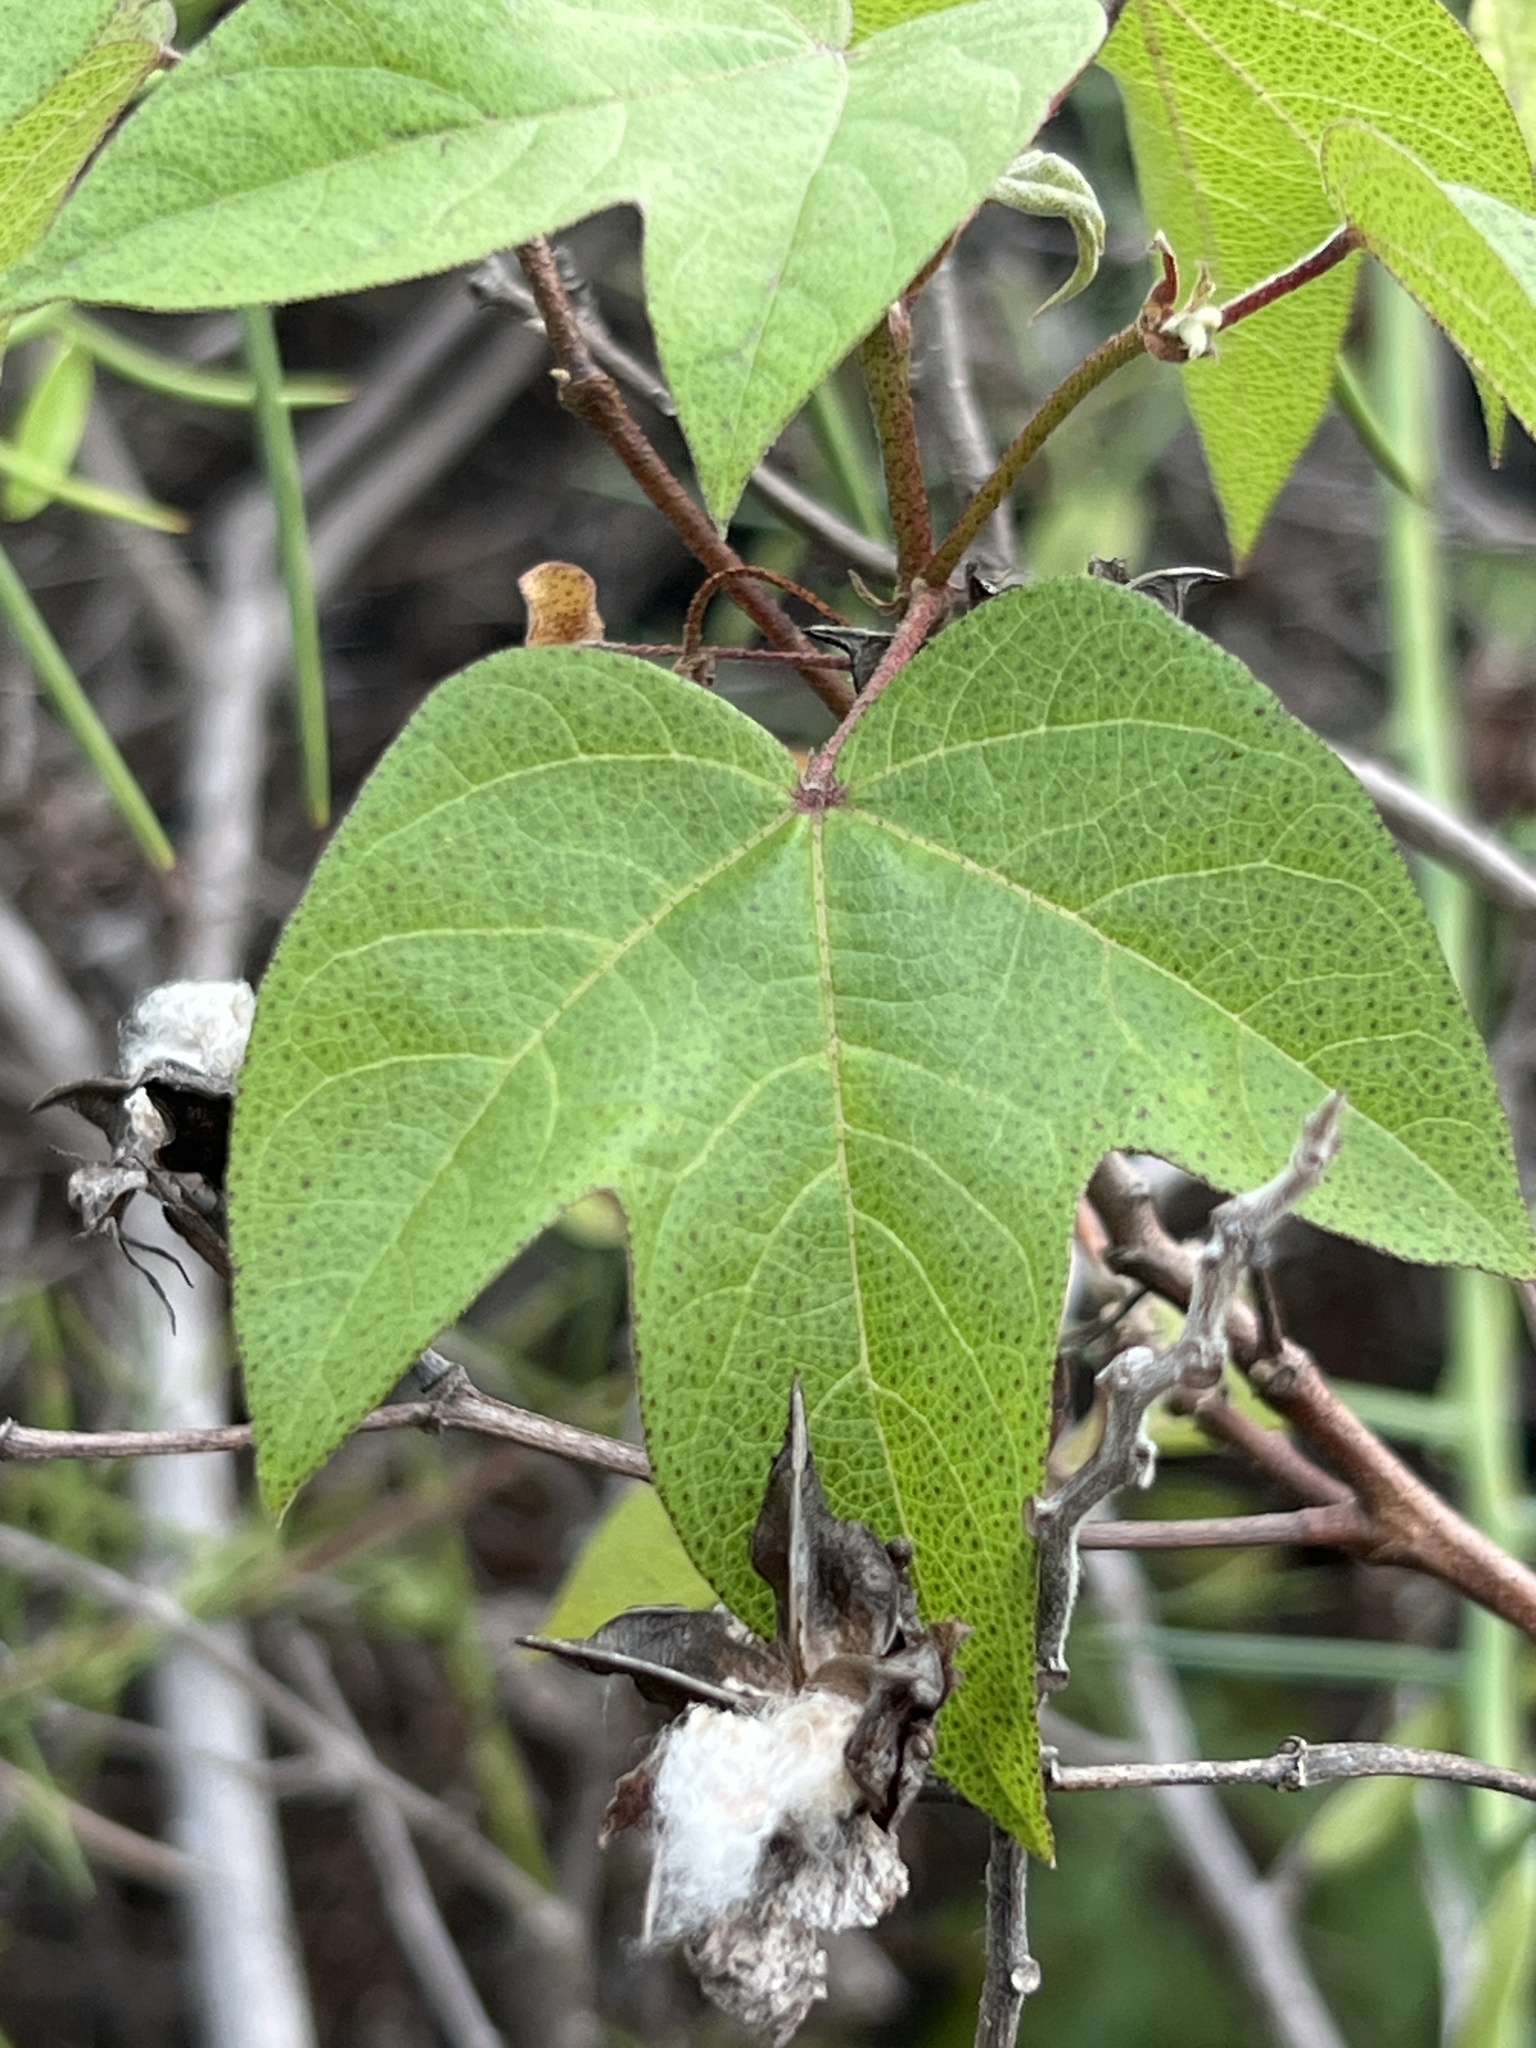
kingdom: Plantae
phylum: Tracheophyta
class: Magnoliopsida
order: Malvales
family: Malvaceae
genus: Gossypium
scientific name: Gossypium darwinii
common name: Darwin's cotton
